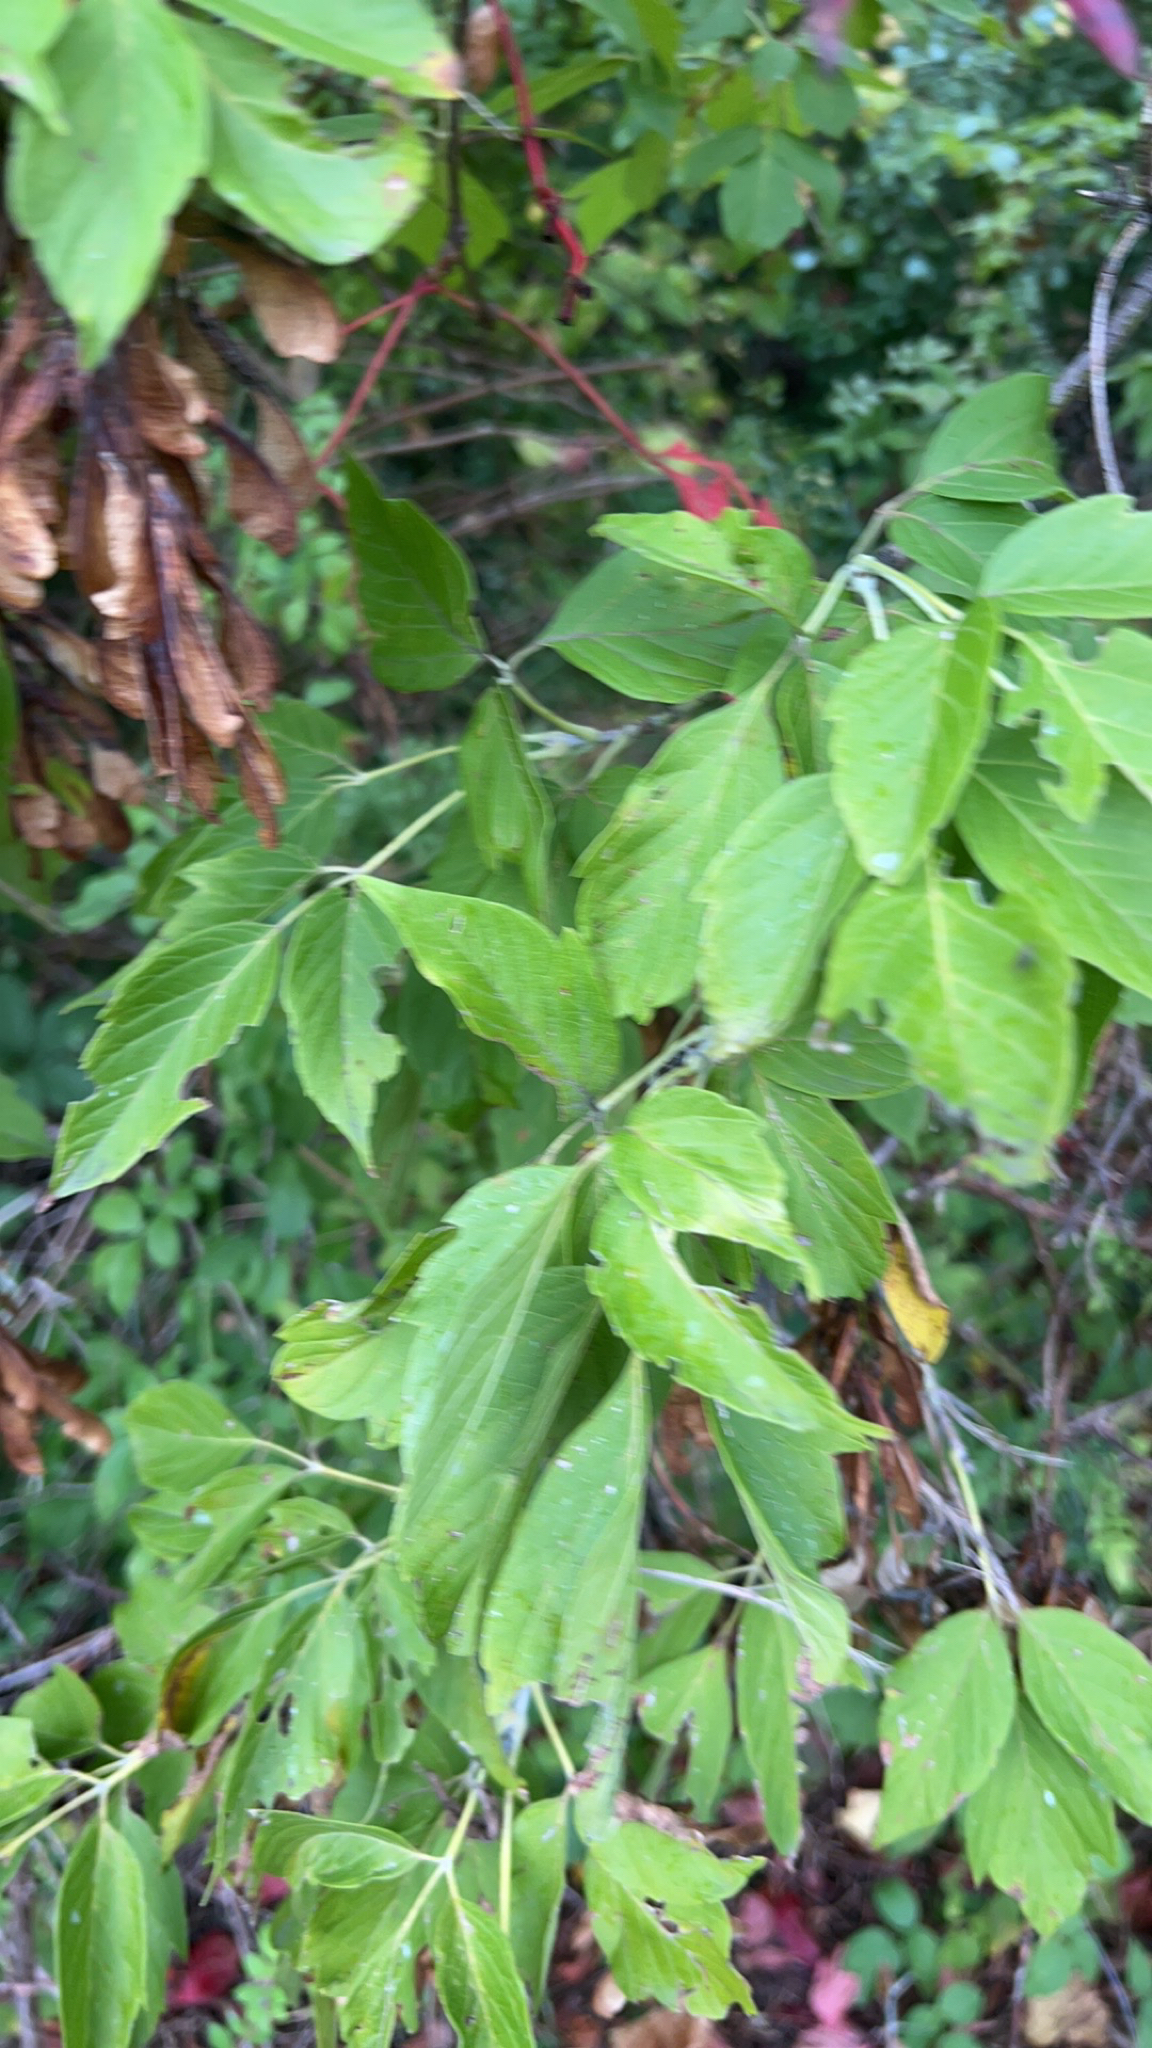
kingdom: Plantae
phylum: Tracheophyta
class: Magnoliopsida
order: Sapindales
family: Sapindaceae
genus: Acer
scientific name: Acer negundo
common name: Ashleaf maple
